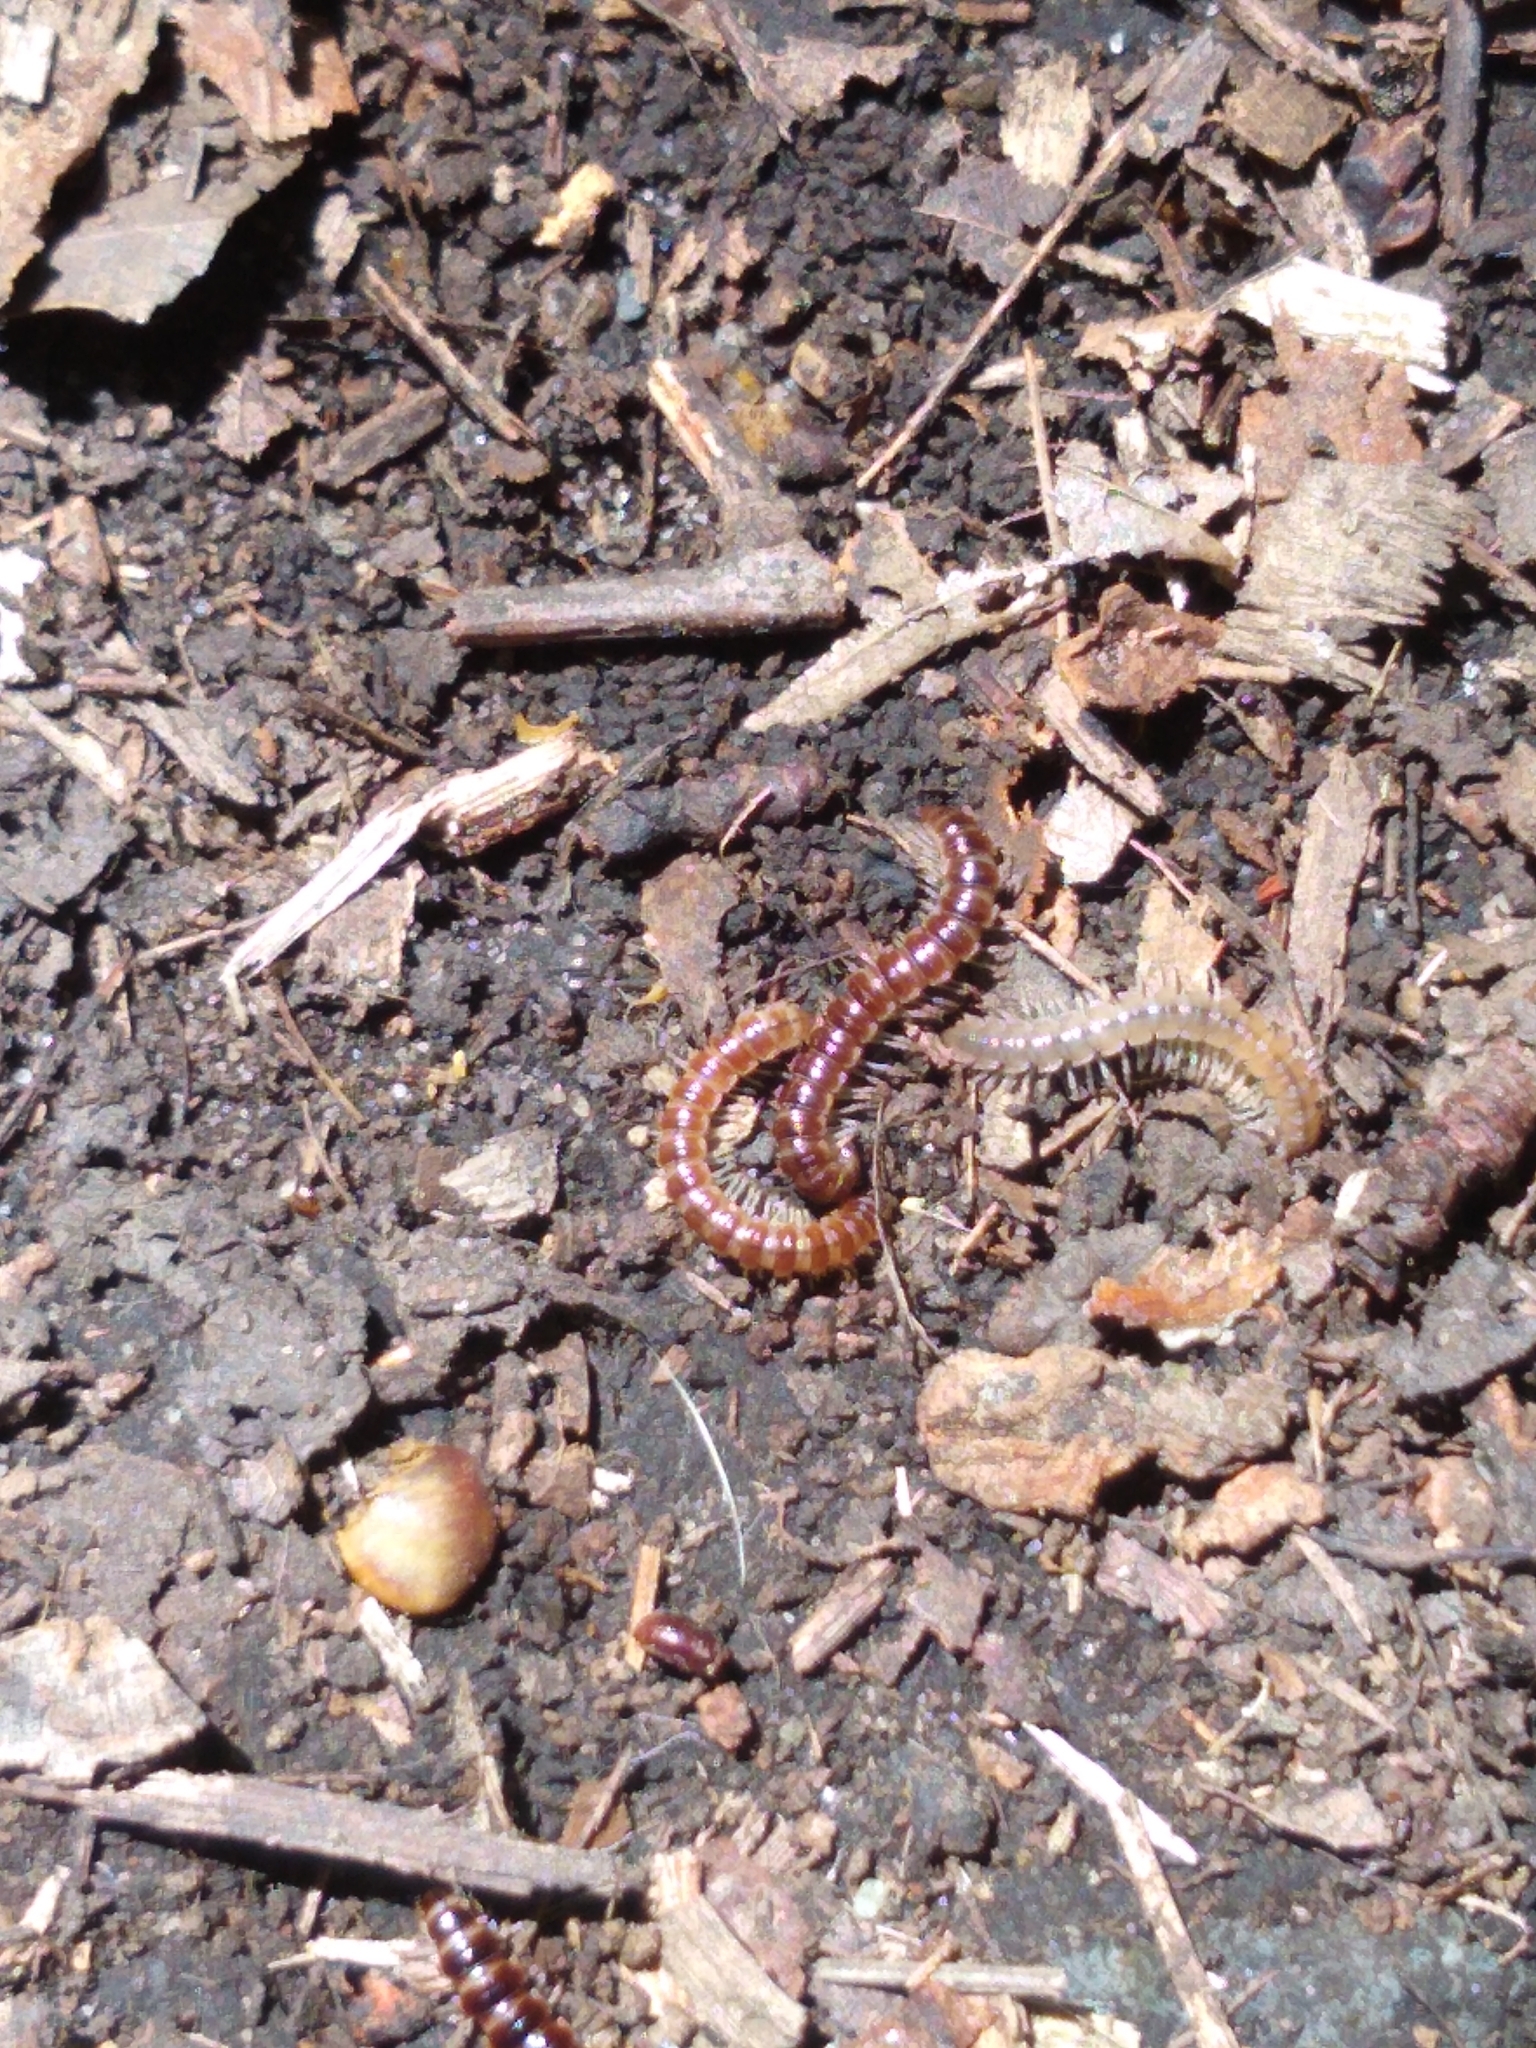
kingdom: Animalia
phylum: Arthropoda
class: Diplopoda
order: Polydesmida
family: Paradoxosomatidae
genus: Oxidus
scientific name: Oxidus gracilis
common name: Greenhouse millipede
